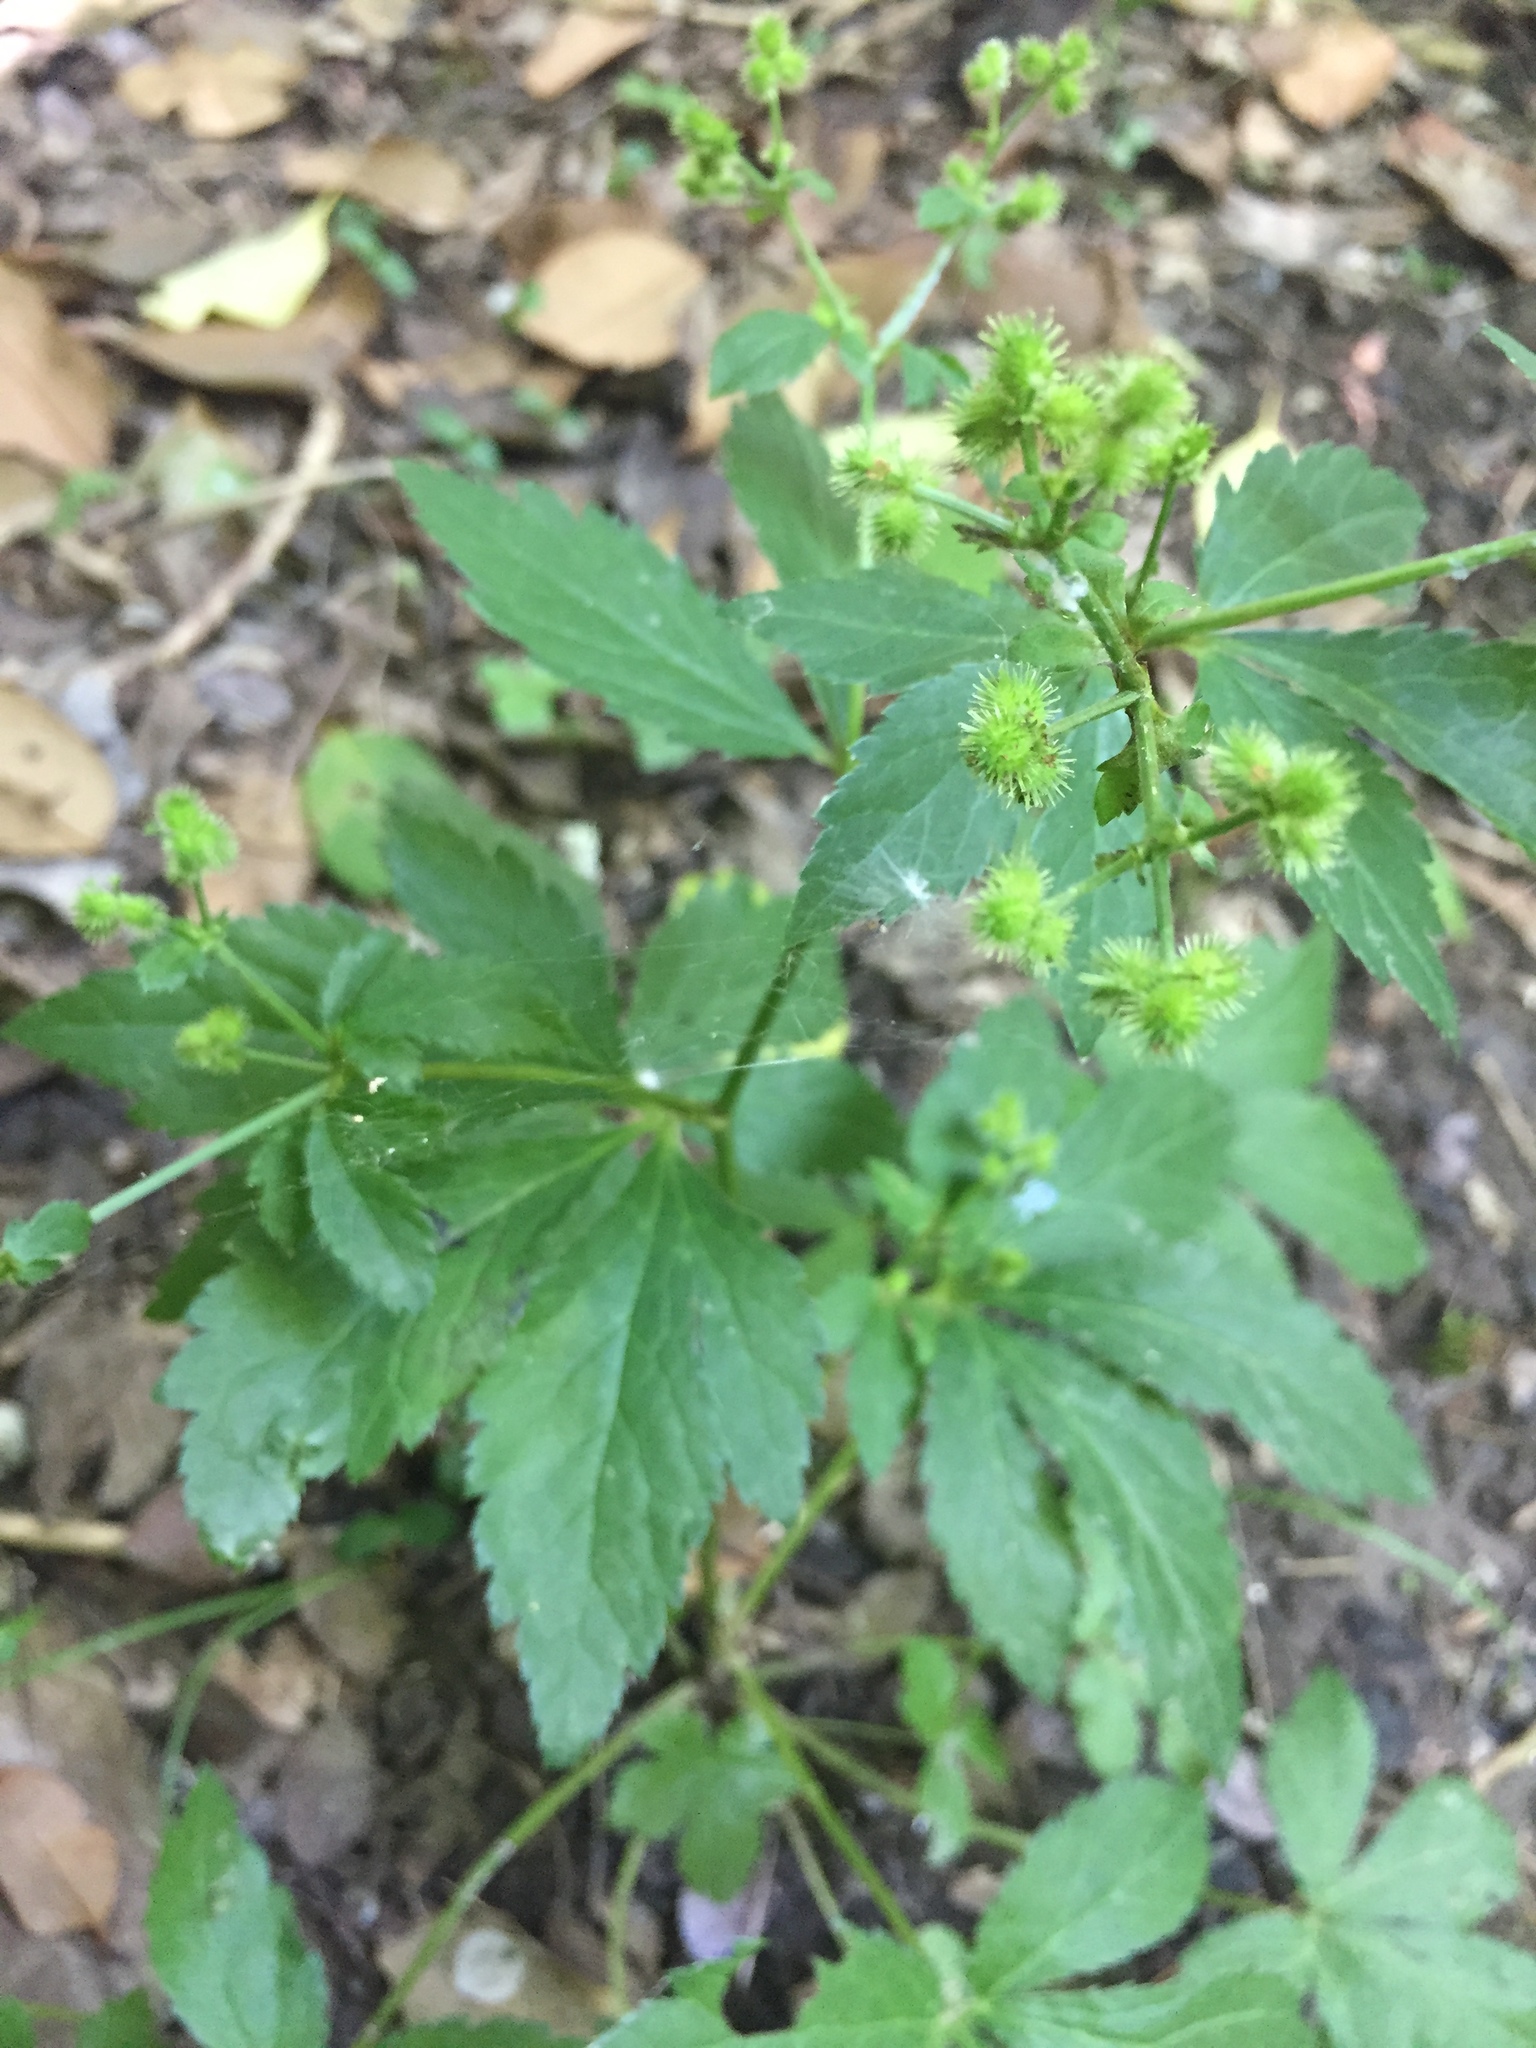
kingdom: Plantae
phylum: Tracheophyta
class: Magnoliopsida
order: Apiales
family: Apiaceae
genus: Sanicula
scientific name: Sanicula canadensis
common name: Canada sanicle
